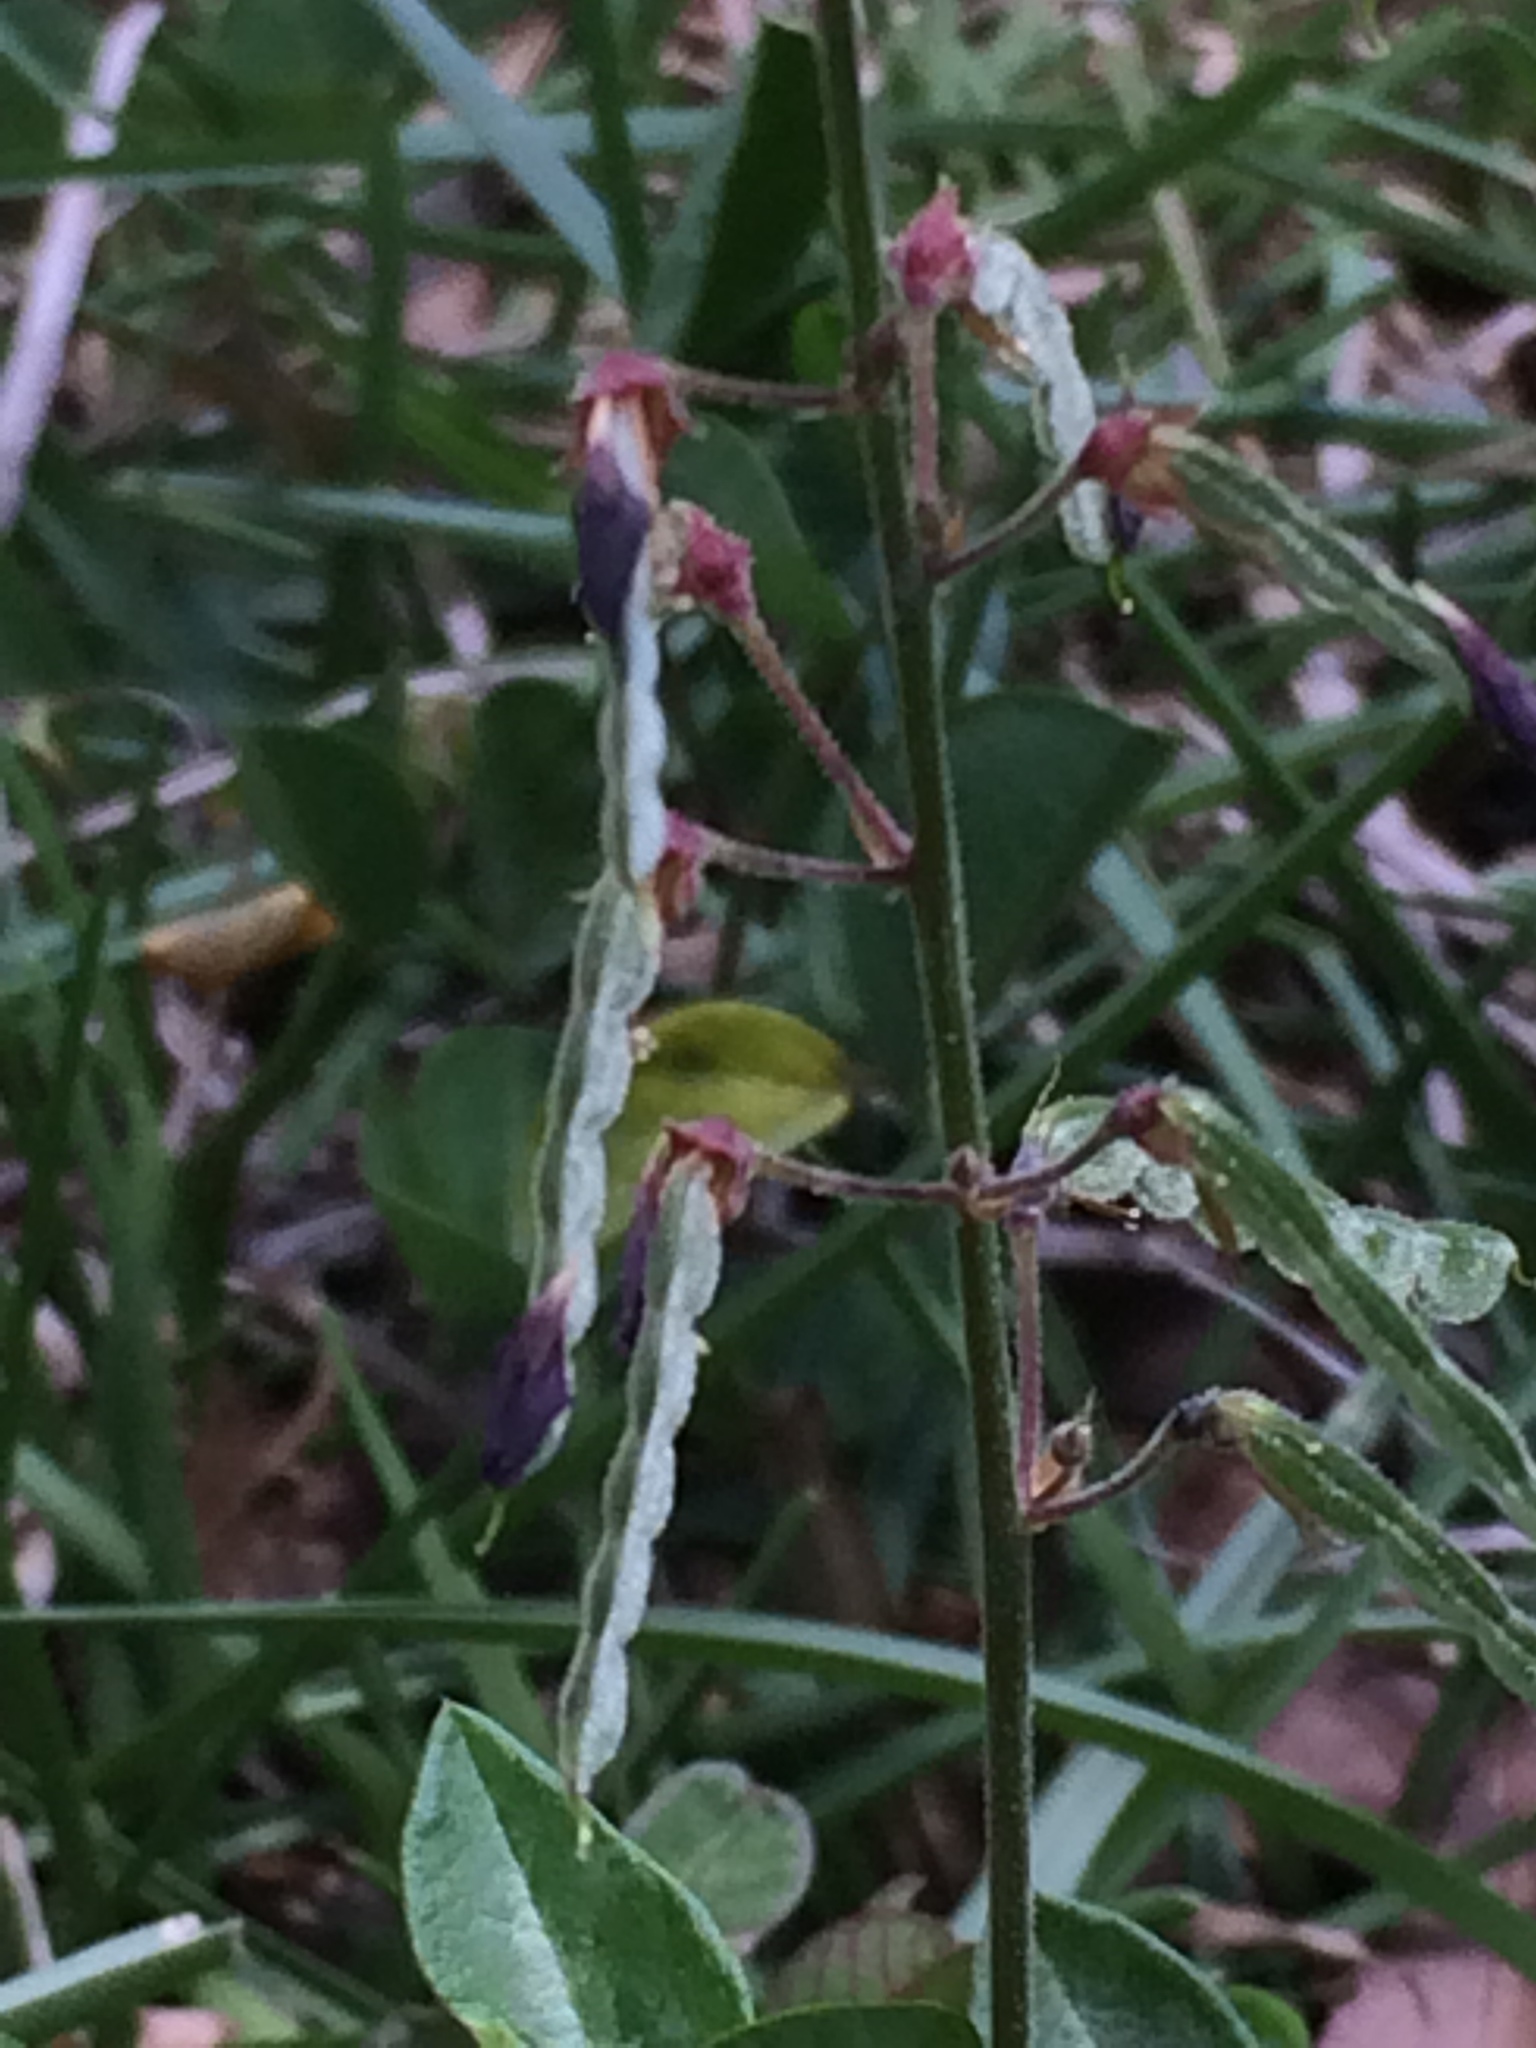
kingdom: Plantae
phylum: Tracheophyta
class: Magnoliopsida
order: Fabales
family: Fabaceae
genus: Desmodium
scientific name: Desmodium incanum
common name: Tickclover
